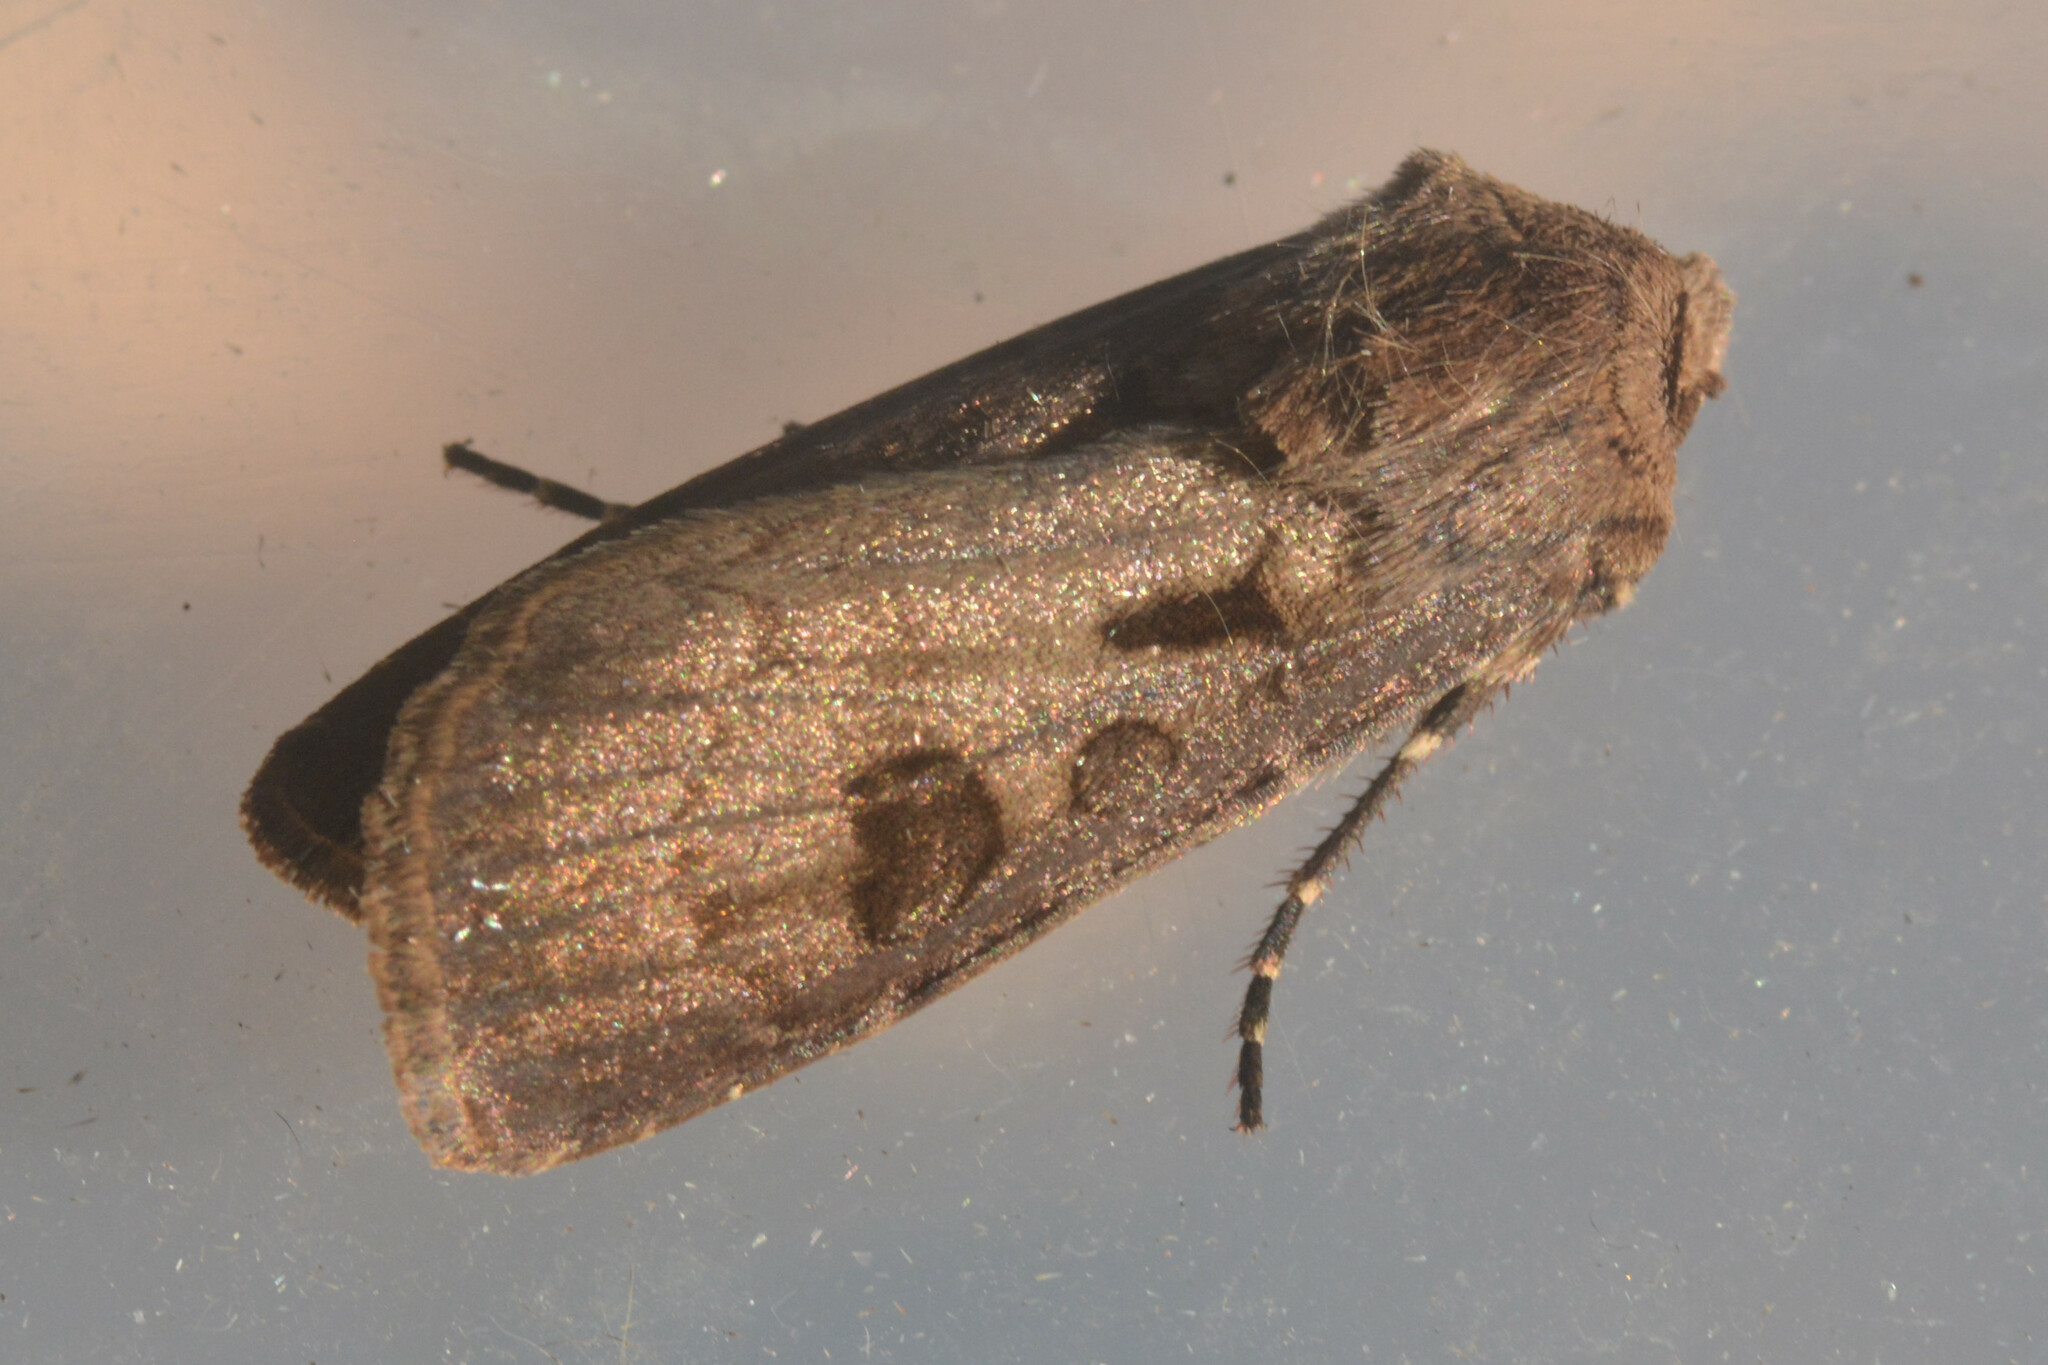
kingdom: Animalia
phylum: Arthropoda
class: Insecta
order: Lepidoptera
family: Noctuidae
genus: Agrotis
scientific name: Agrotis exclamationis
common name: Heart and dart
